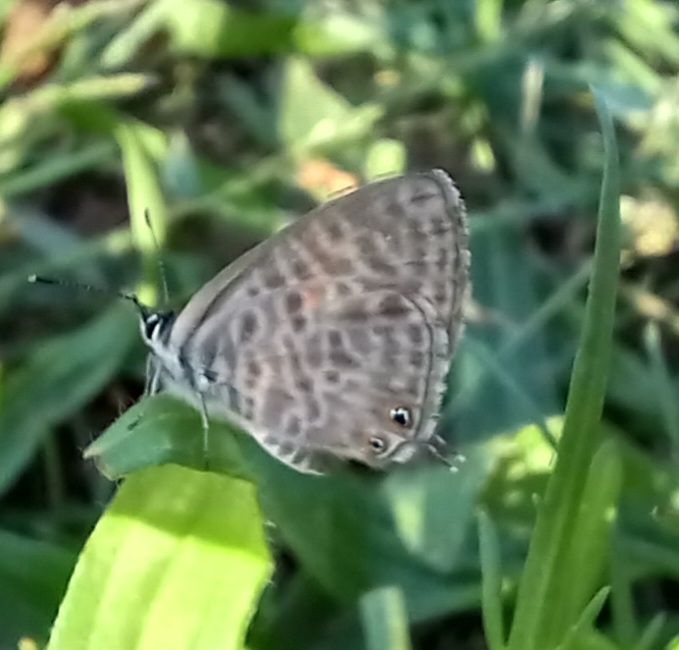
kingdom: Animalia
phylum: Arthropoda
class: Insecta
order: Lepidoptera
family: Lycaenidae
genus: Leptotes
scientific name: Leptotes pirithous
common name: Lang's short-tailed blue
